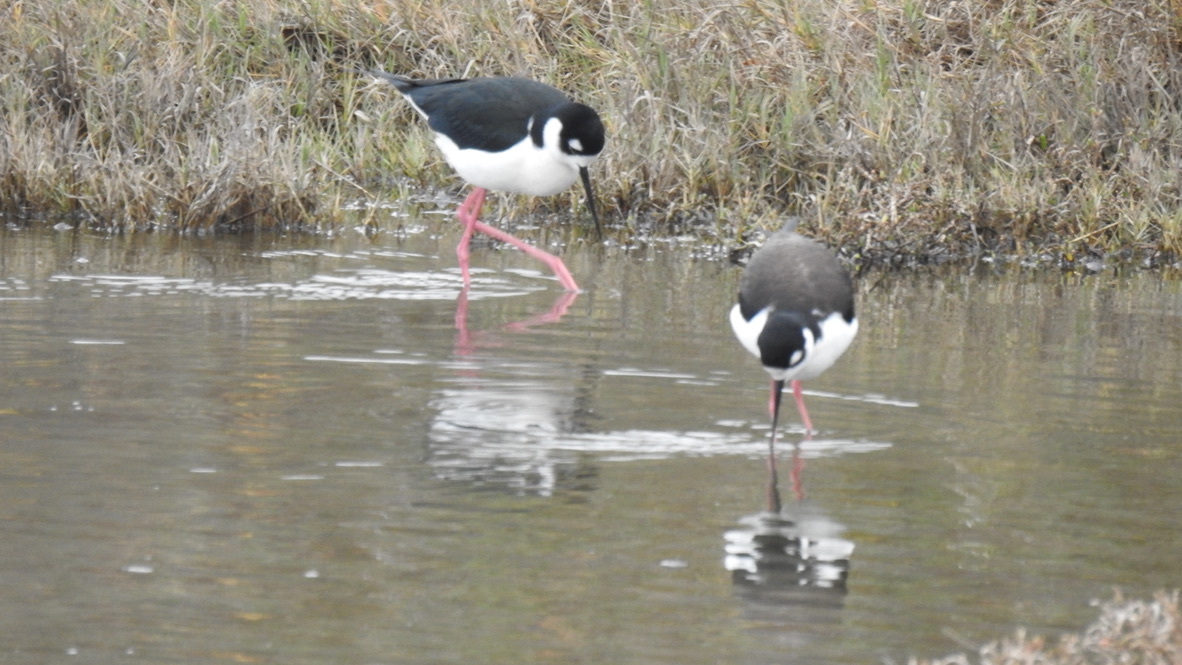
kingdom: Animalia
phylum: Chordata
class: Aves
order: Charadriiformes
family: Recurvirostridae
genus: Himantopus
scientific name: Himantopus mexicanus
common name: Black-necked stilt
